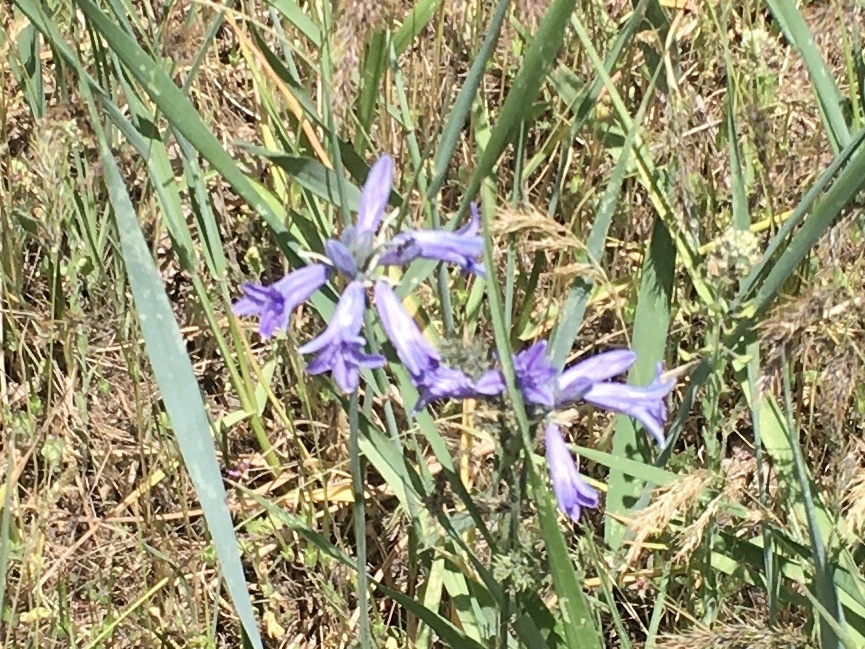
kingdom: Plantae
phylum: Tracheophyta
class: Liliopsida
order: Asparagales
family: Asparagaceae
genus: Triteleia
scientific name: Triteleia grandiflora
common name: Wild hyacinth
